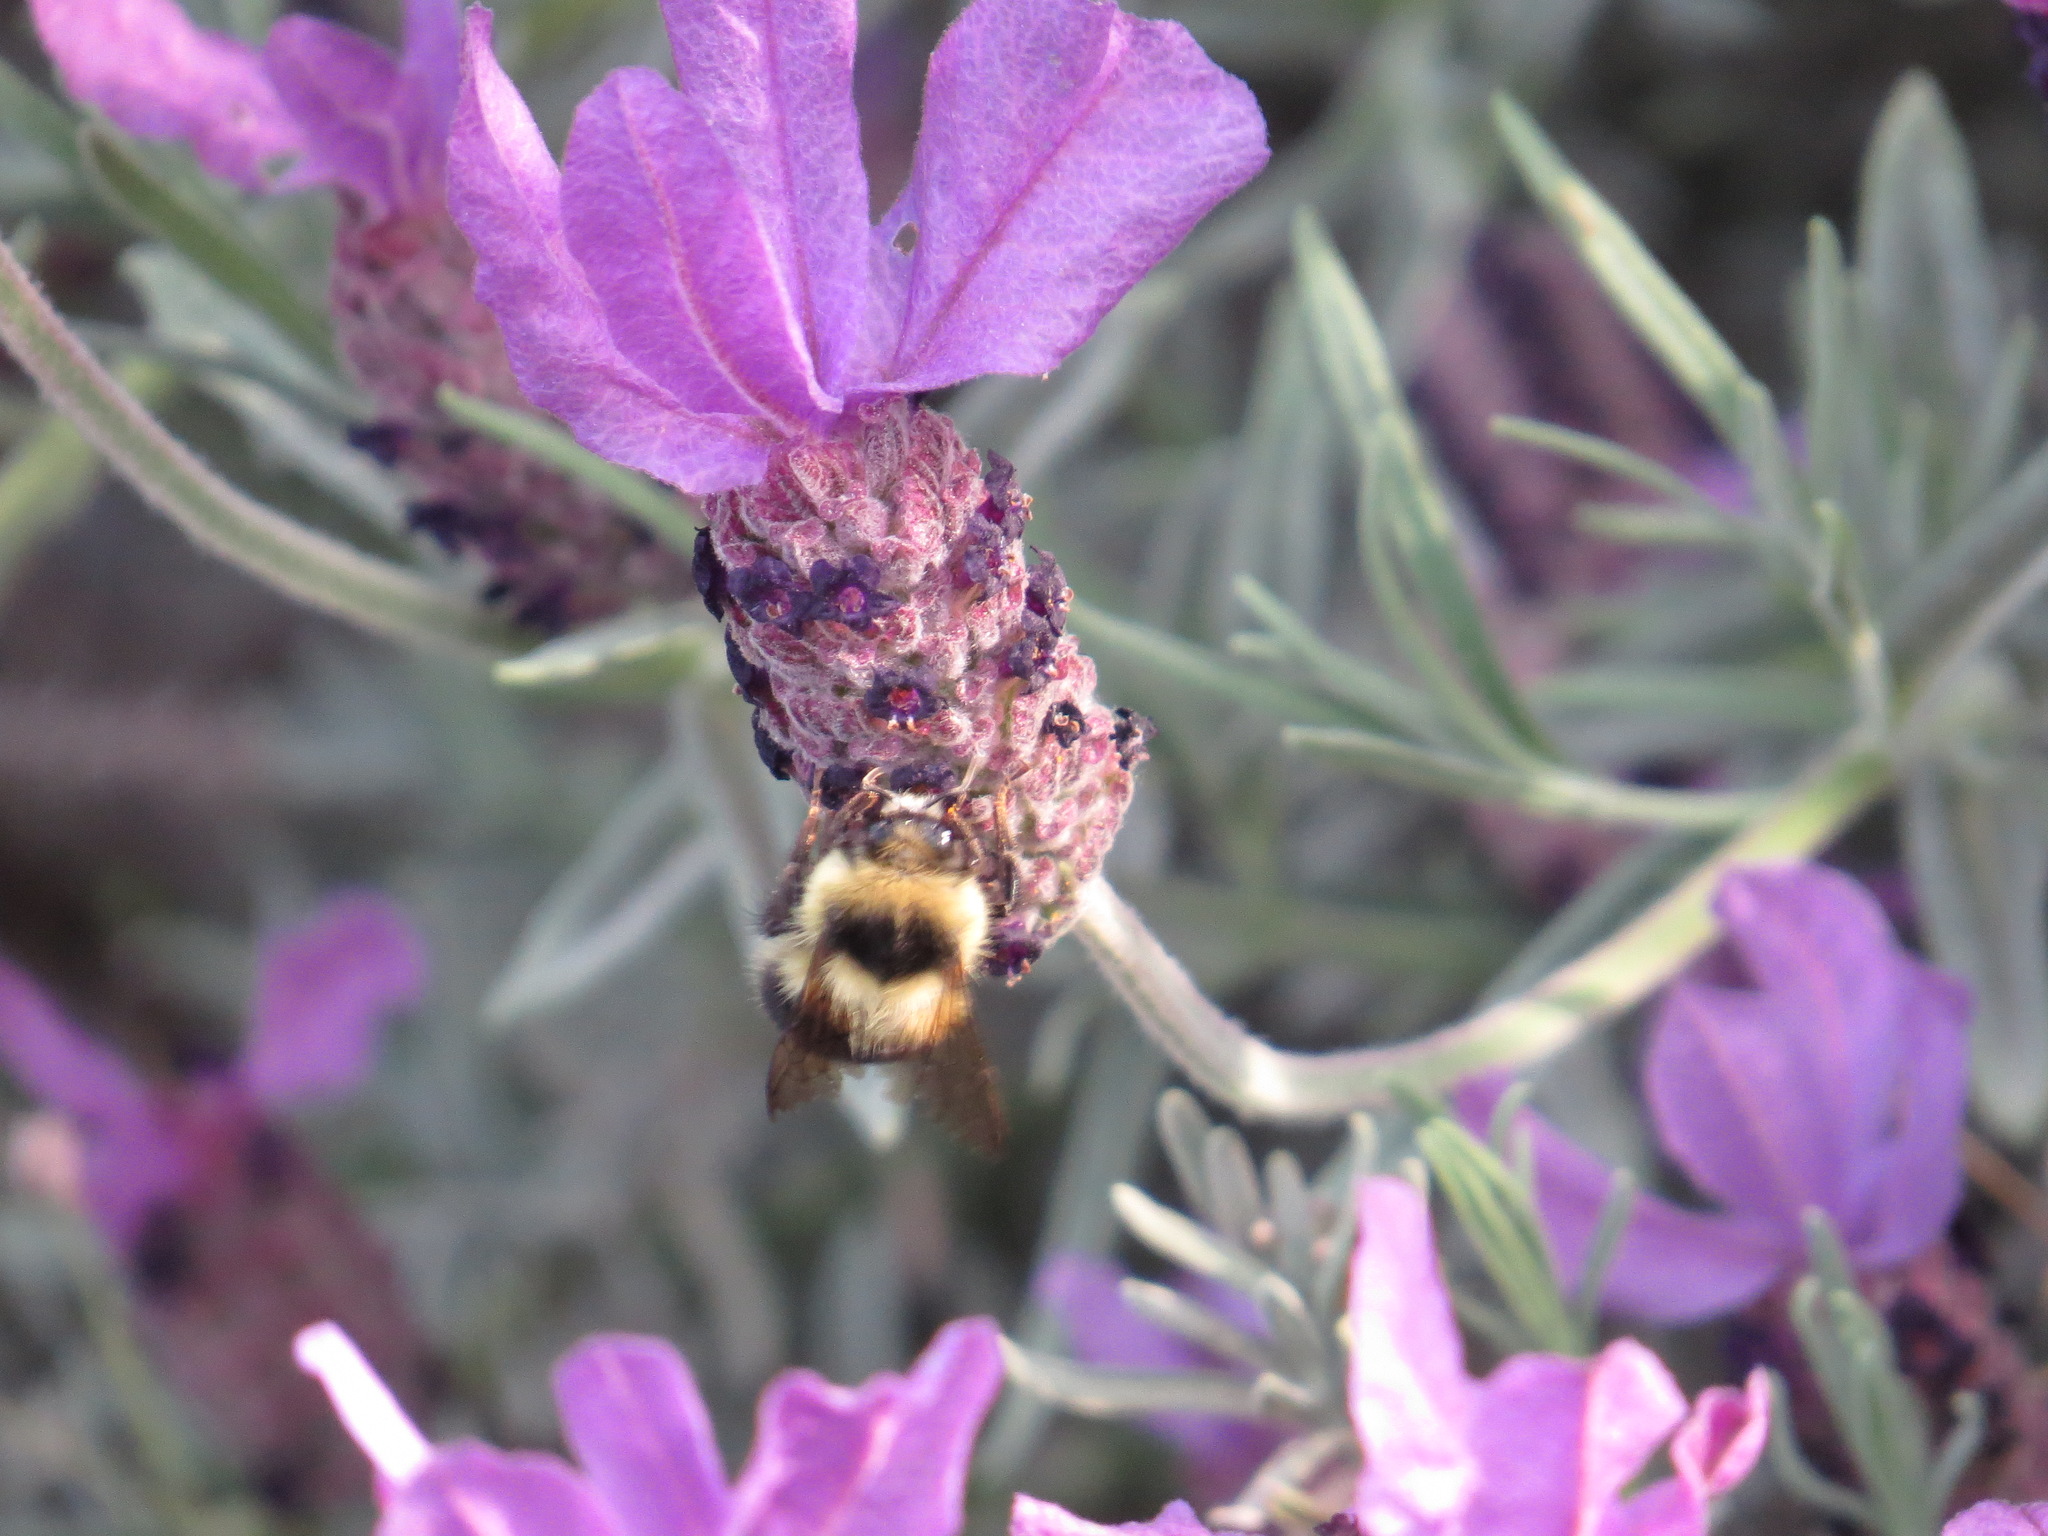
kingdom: Animalia
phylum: Arthropoda
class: Insecta
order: Hymenoptera
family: Apidae
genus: Bombus
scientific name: Bombus melanopygus
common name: Black tail bumble bee
